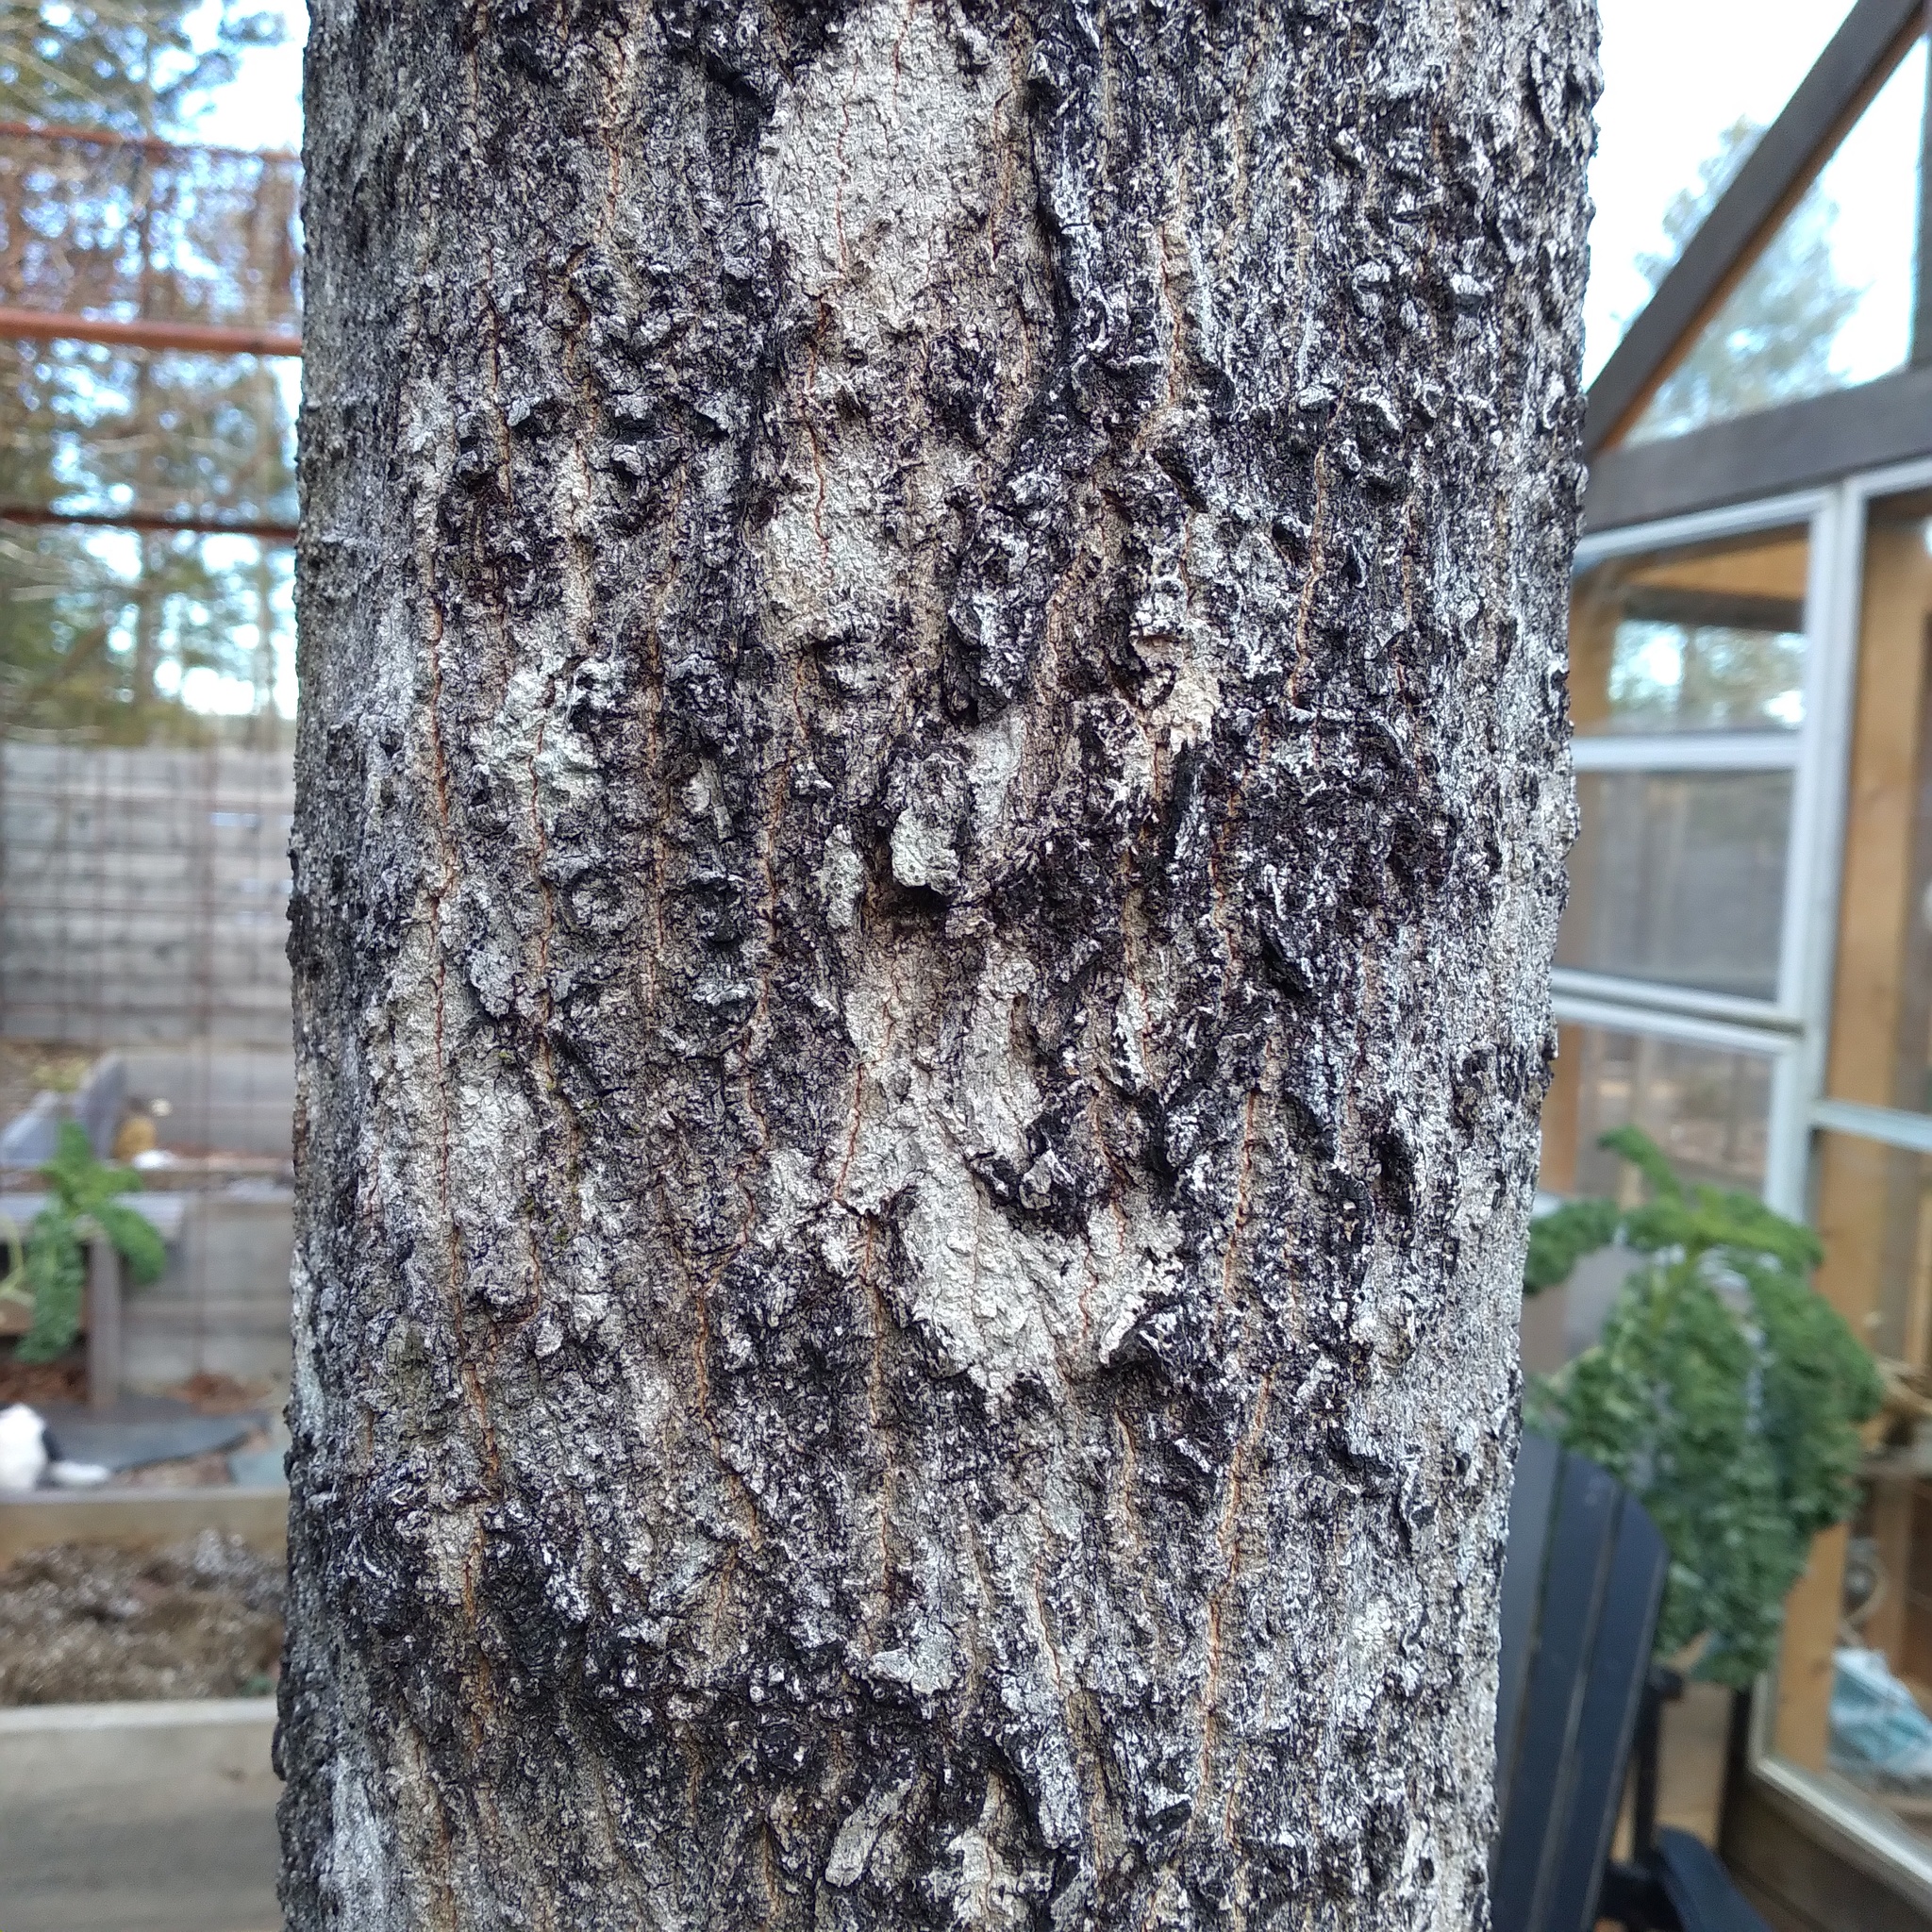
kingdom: Plantae
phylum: Tracheophyta
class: Magnoliopsida
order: Sapindales
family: Sapindaceae
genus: Acer
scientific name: Acer saccharum
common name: Sugar maple
